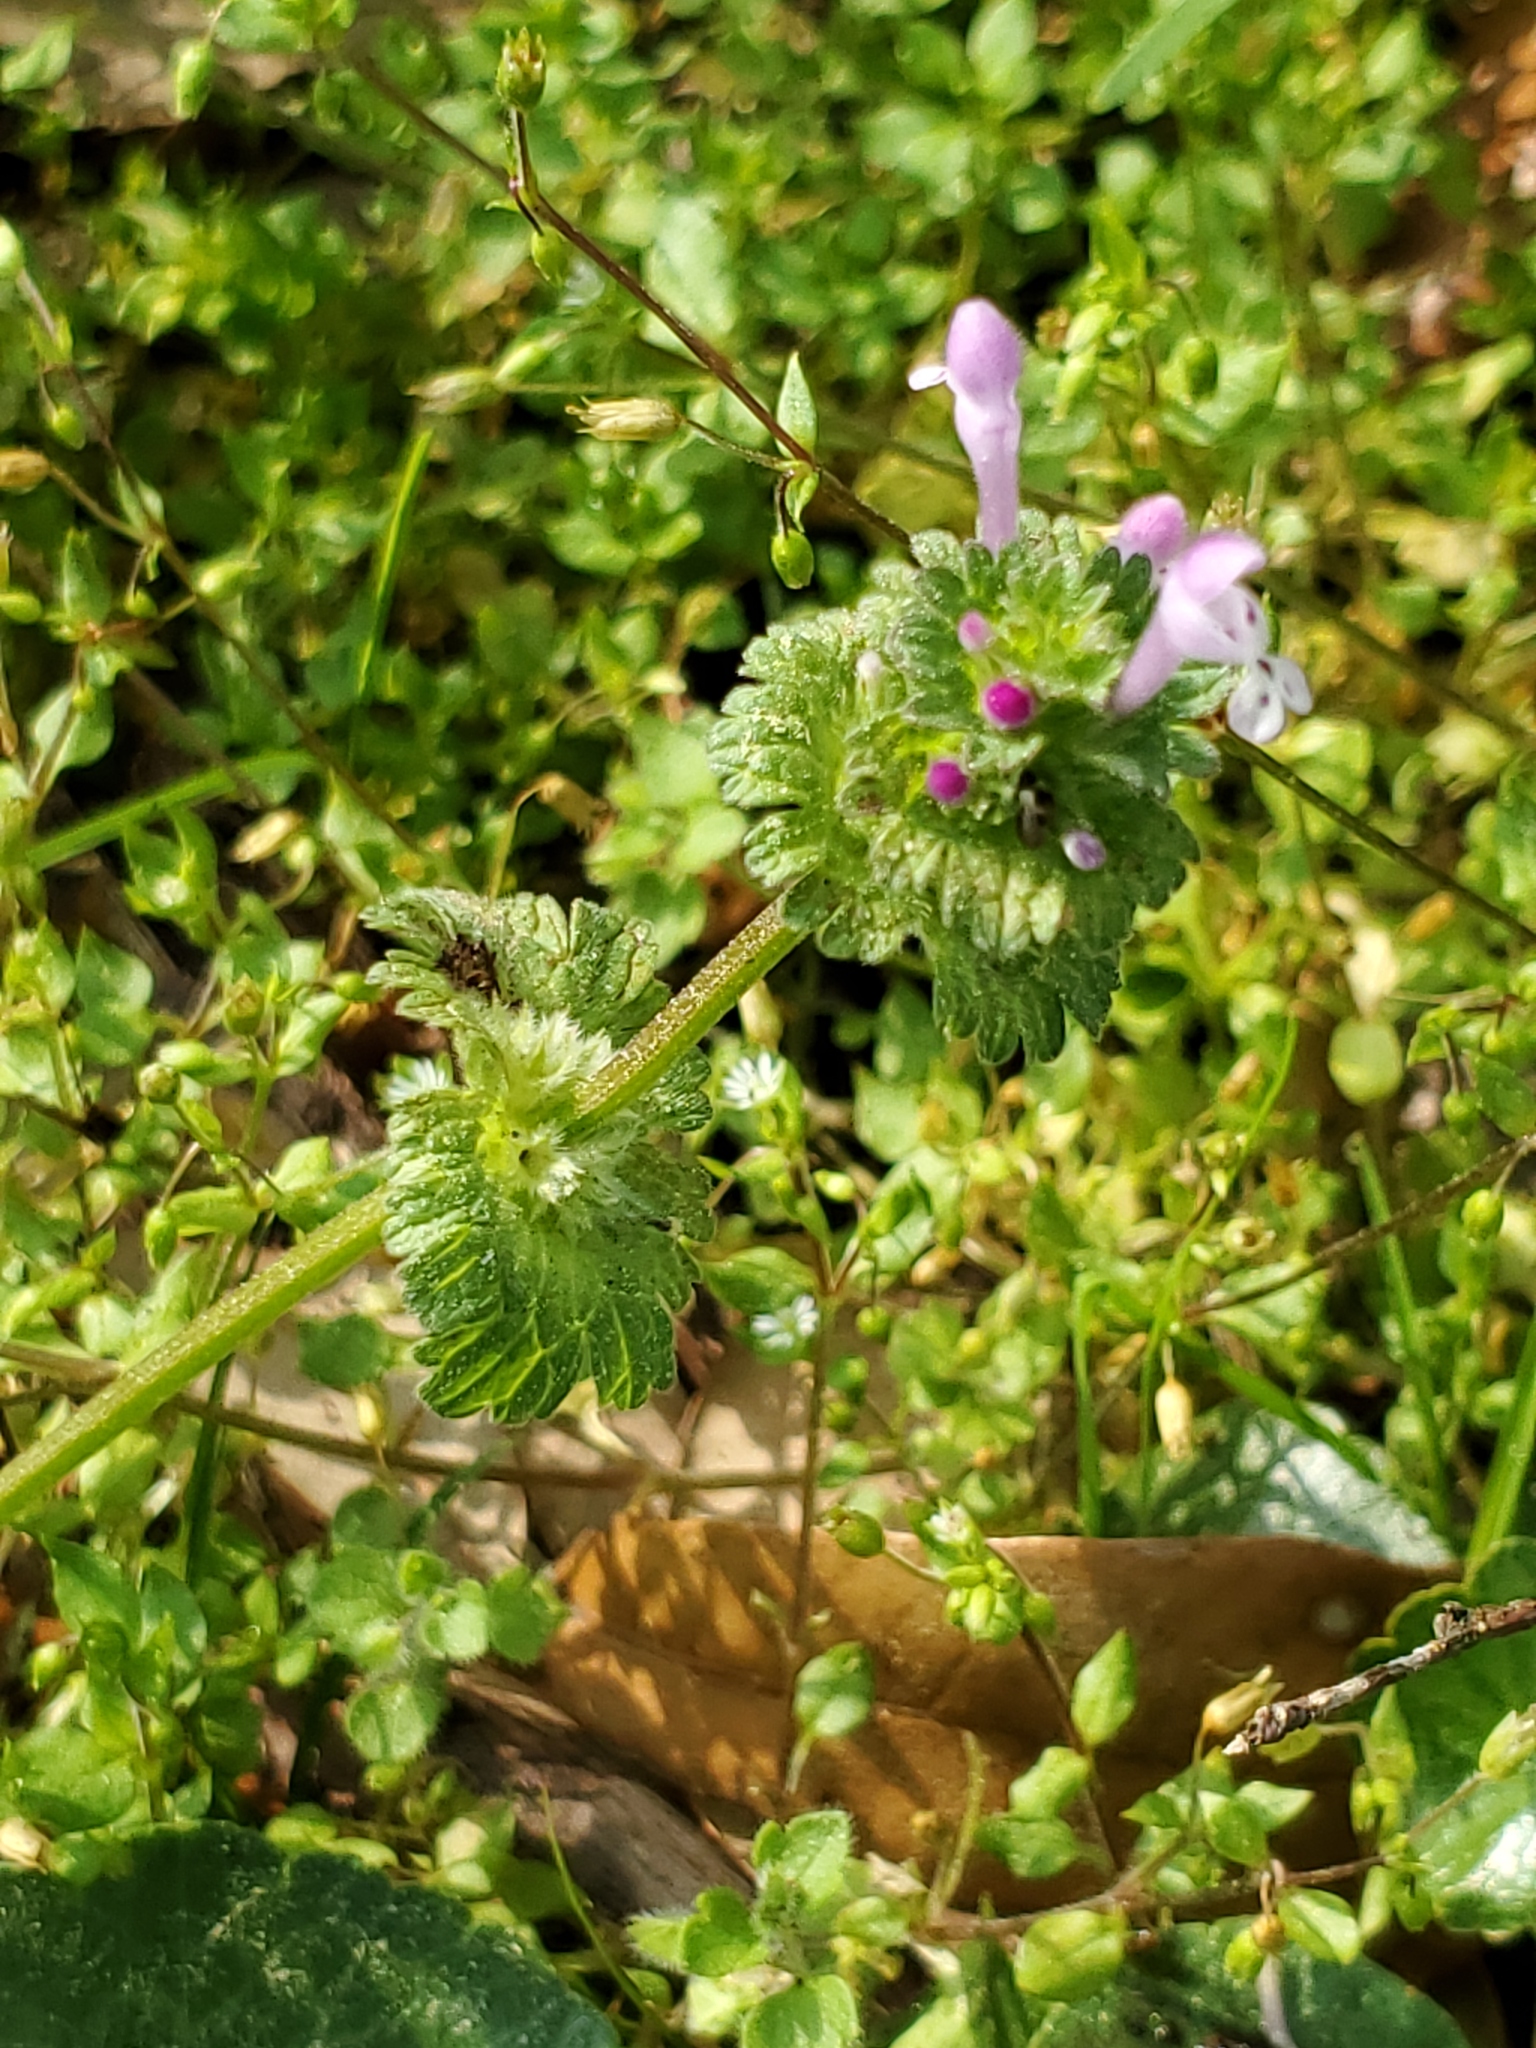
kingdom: Plantae
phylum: Tracheophyta
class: Magnoliopsida
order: Lamiales
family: Lamiaceae
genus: Lamium
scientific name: Lamium amplexicaule
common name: Henbit dead-nettle
